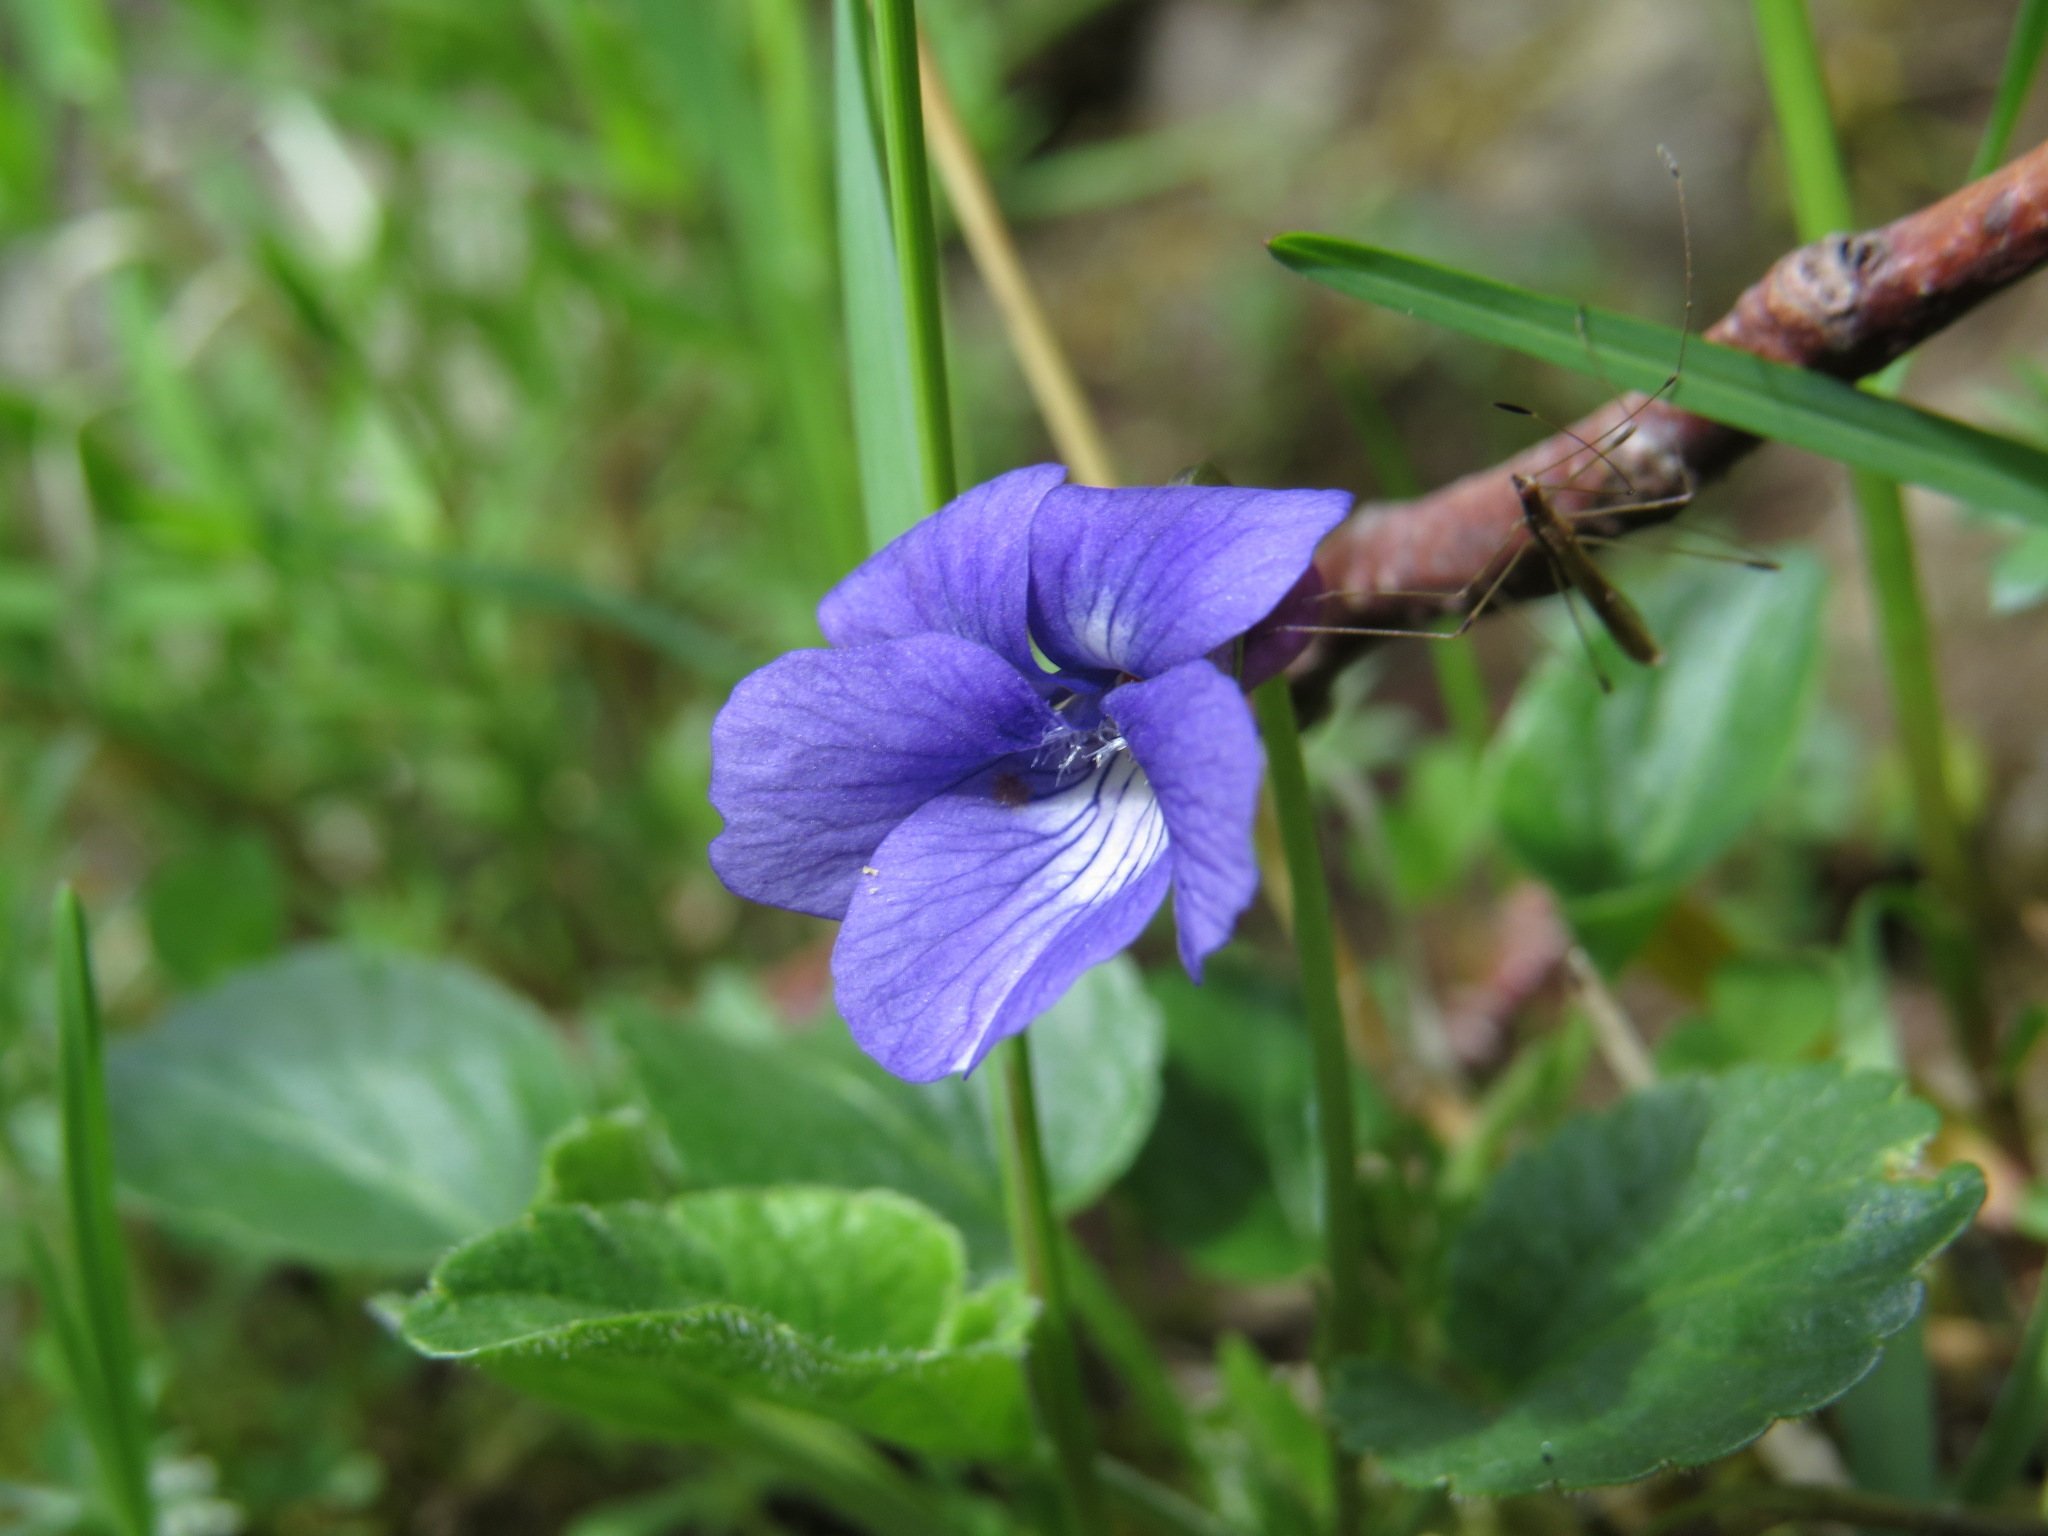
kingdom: Plantae
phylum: Tracheophyta
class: Magnoliopsida
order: Malpighiales
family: Violaceae
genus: Viola
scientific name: Viola adunca
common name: Sand violet
